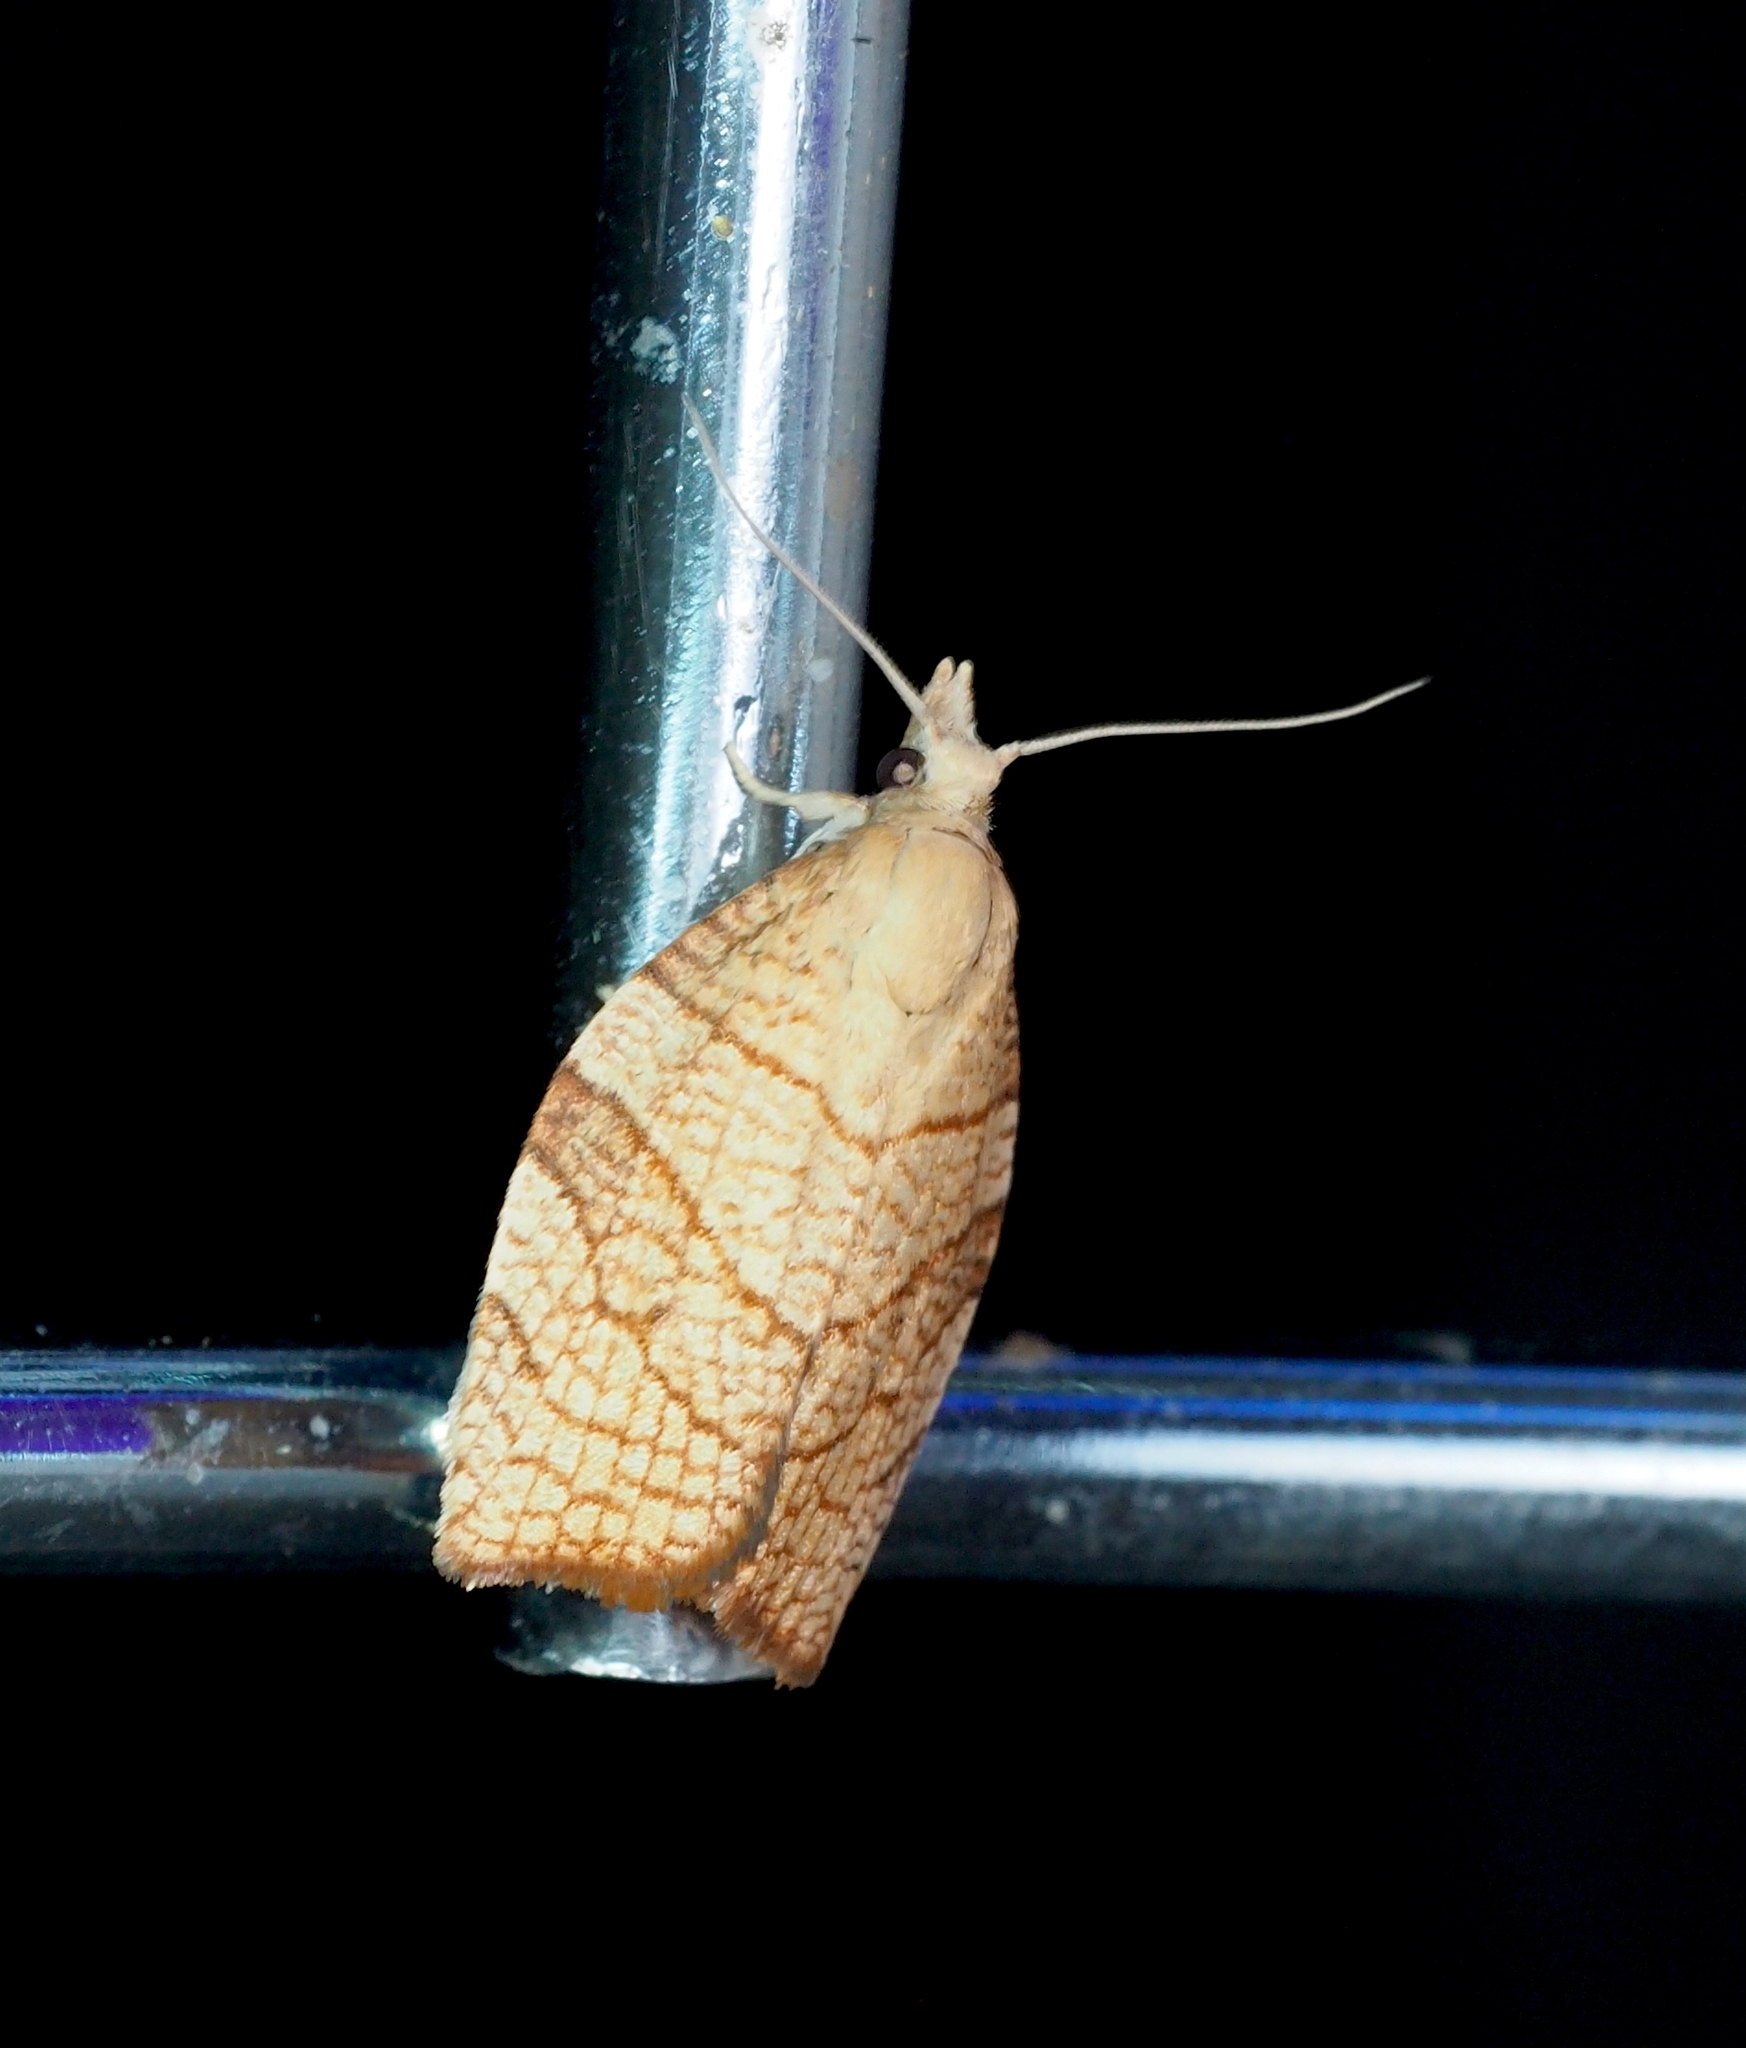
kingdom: Animalia
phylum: Arthropoda
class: Insecta
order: Lepidoptera
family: Tortricidae
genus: Pandemis
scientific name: Pandemis corylana
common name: Chequered fruit-tree tortrix
